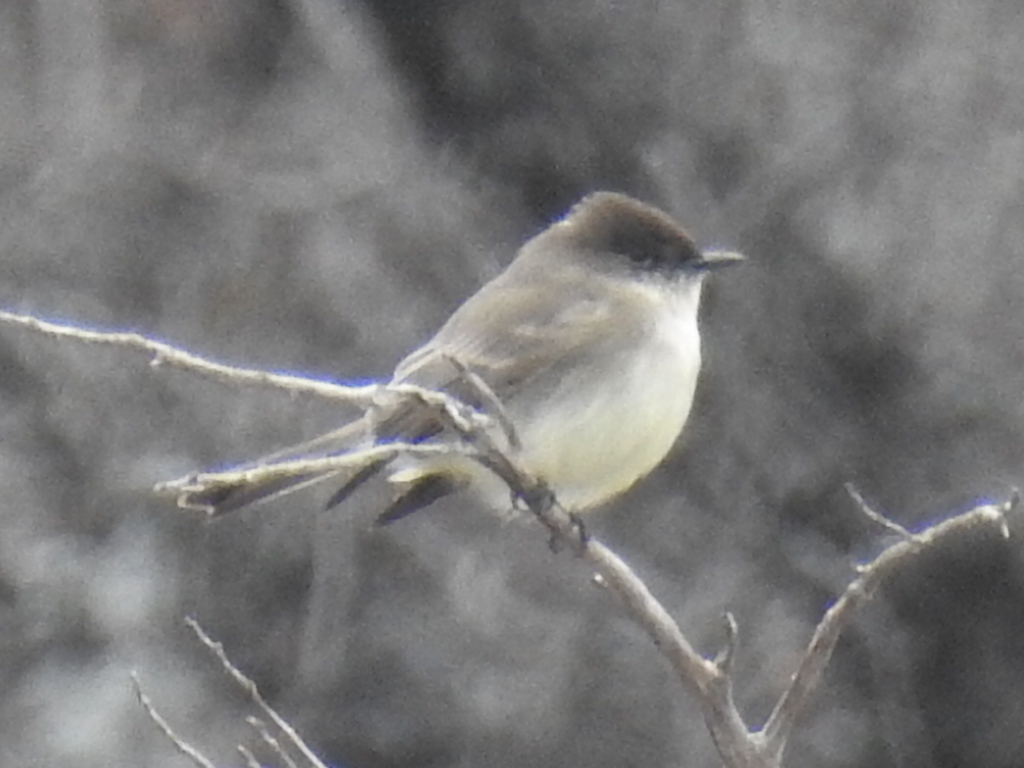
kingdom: Animalia
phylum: Chordata
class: Aves
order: Passeriformes
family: Tyrannidae
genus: Sayornis
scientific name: Sayornis phoebe
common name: Eastern phoebe
